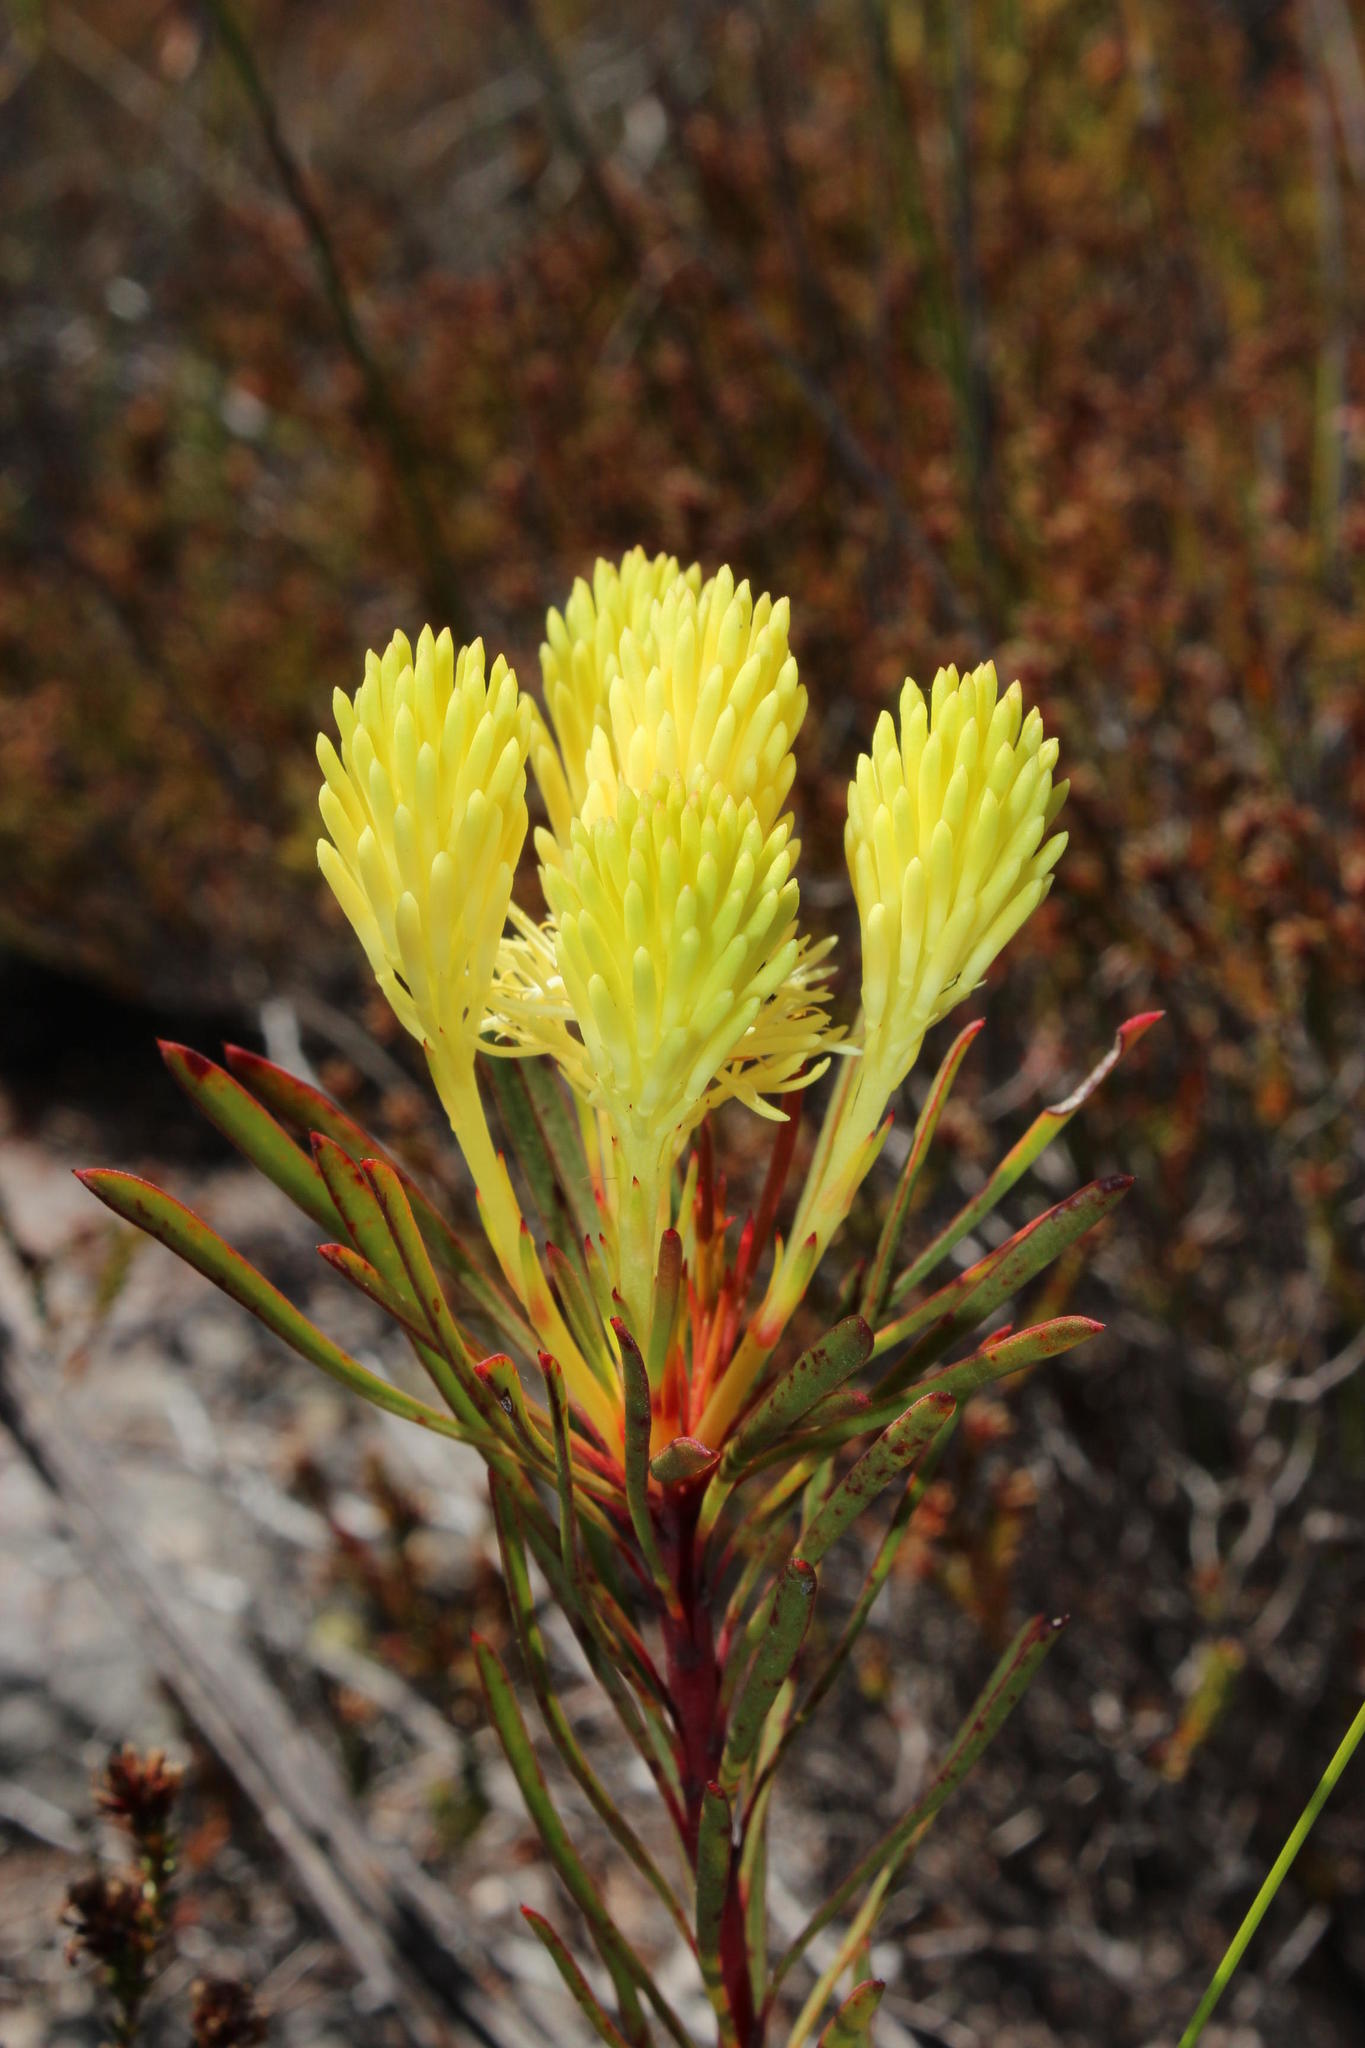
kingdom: Plantae
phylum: Tracheophyta
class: Magnoliopsida
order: Proteales
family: Proteaceae
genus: Aulax
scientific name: Aulax cancellata
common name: Channel-leaf featherbush
